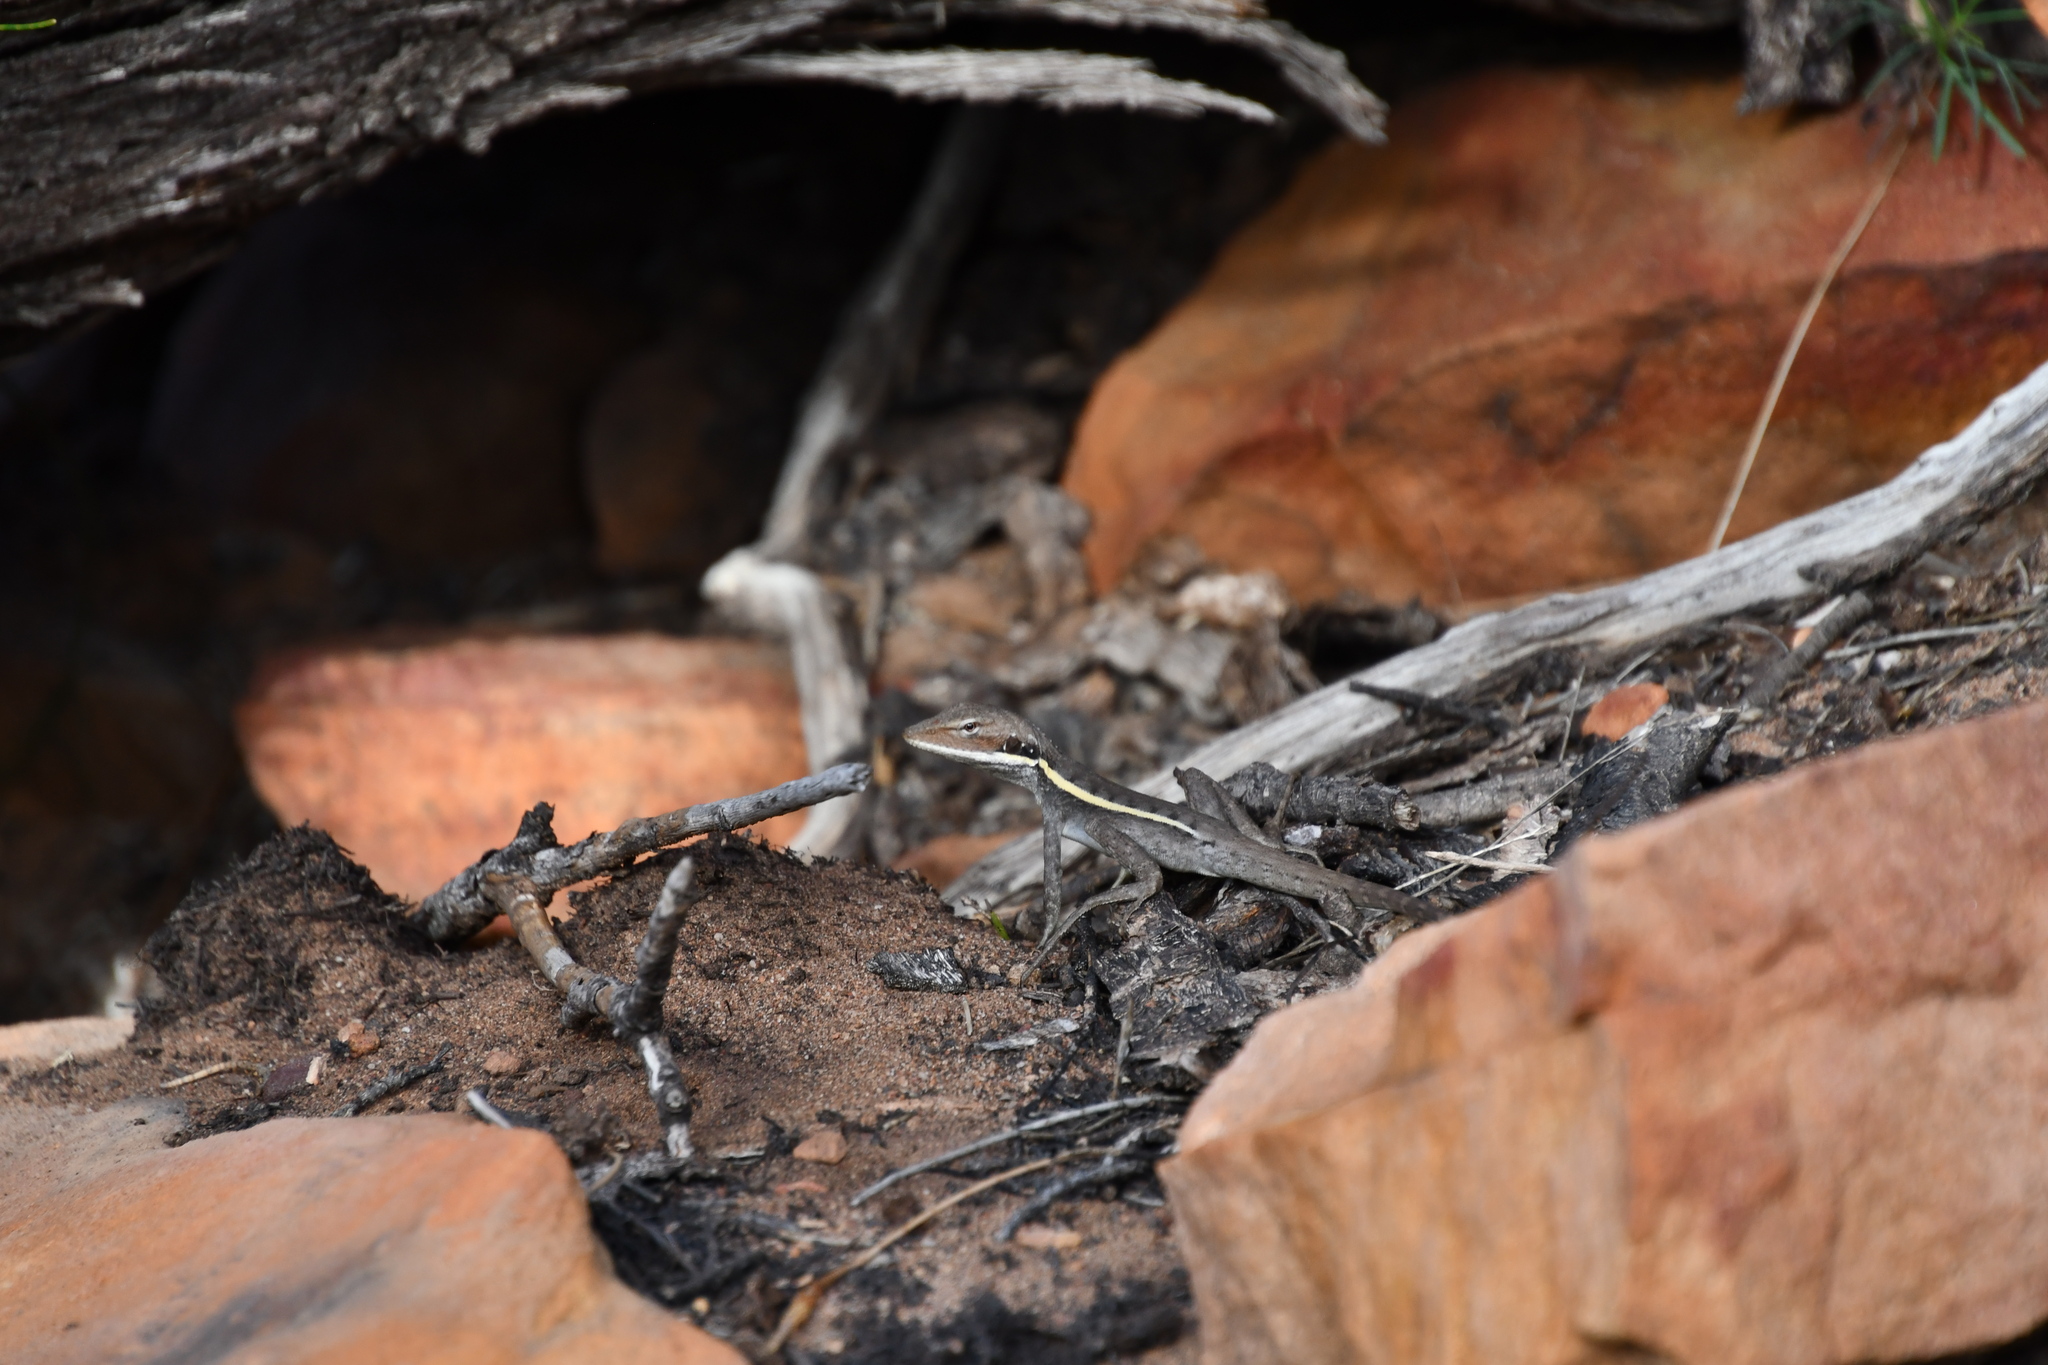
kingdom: Animalia
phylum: Chordata
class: Squamata
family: Agamidae
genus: Gowidon
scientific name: Gowidon longirostris
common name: Long-nosed water dragon
